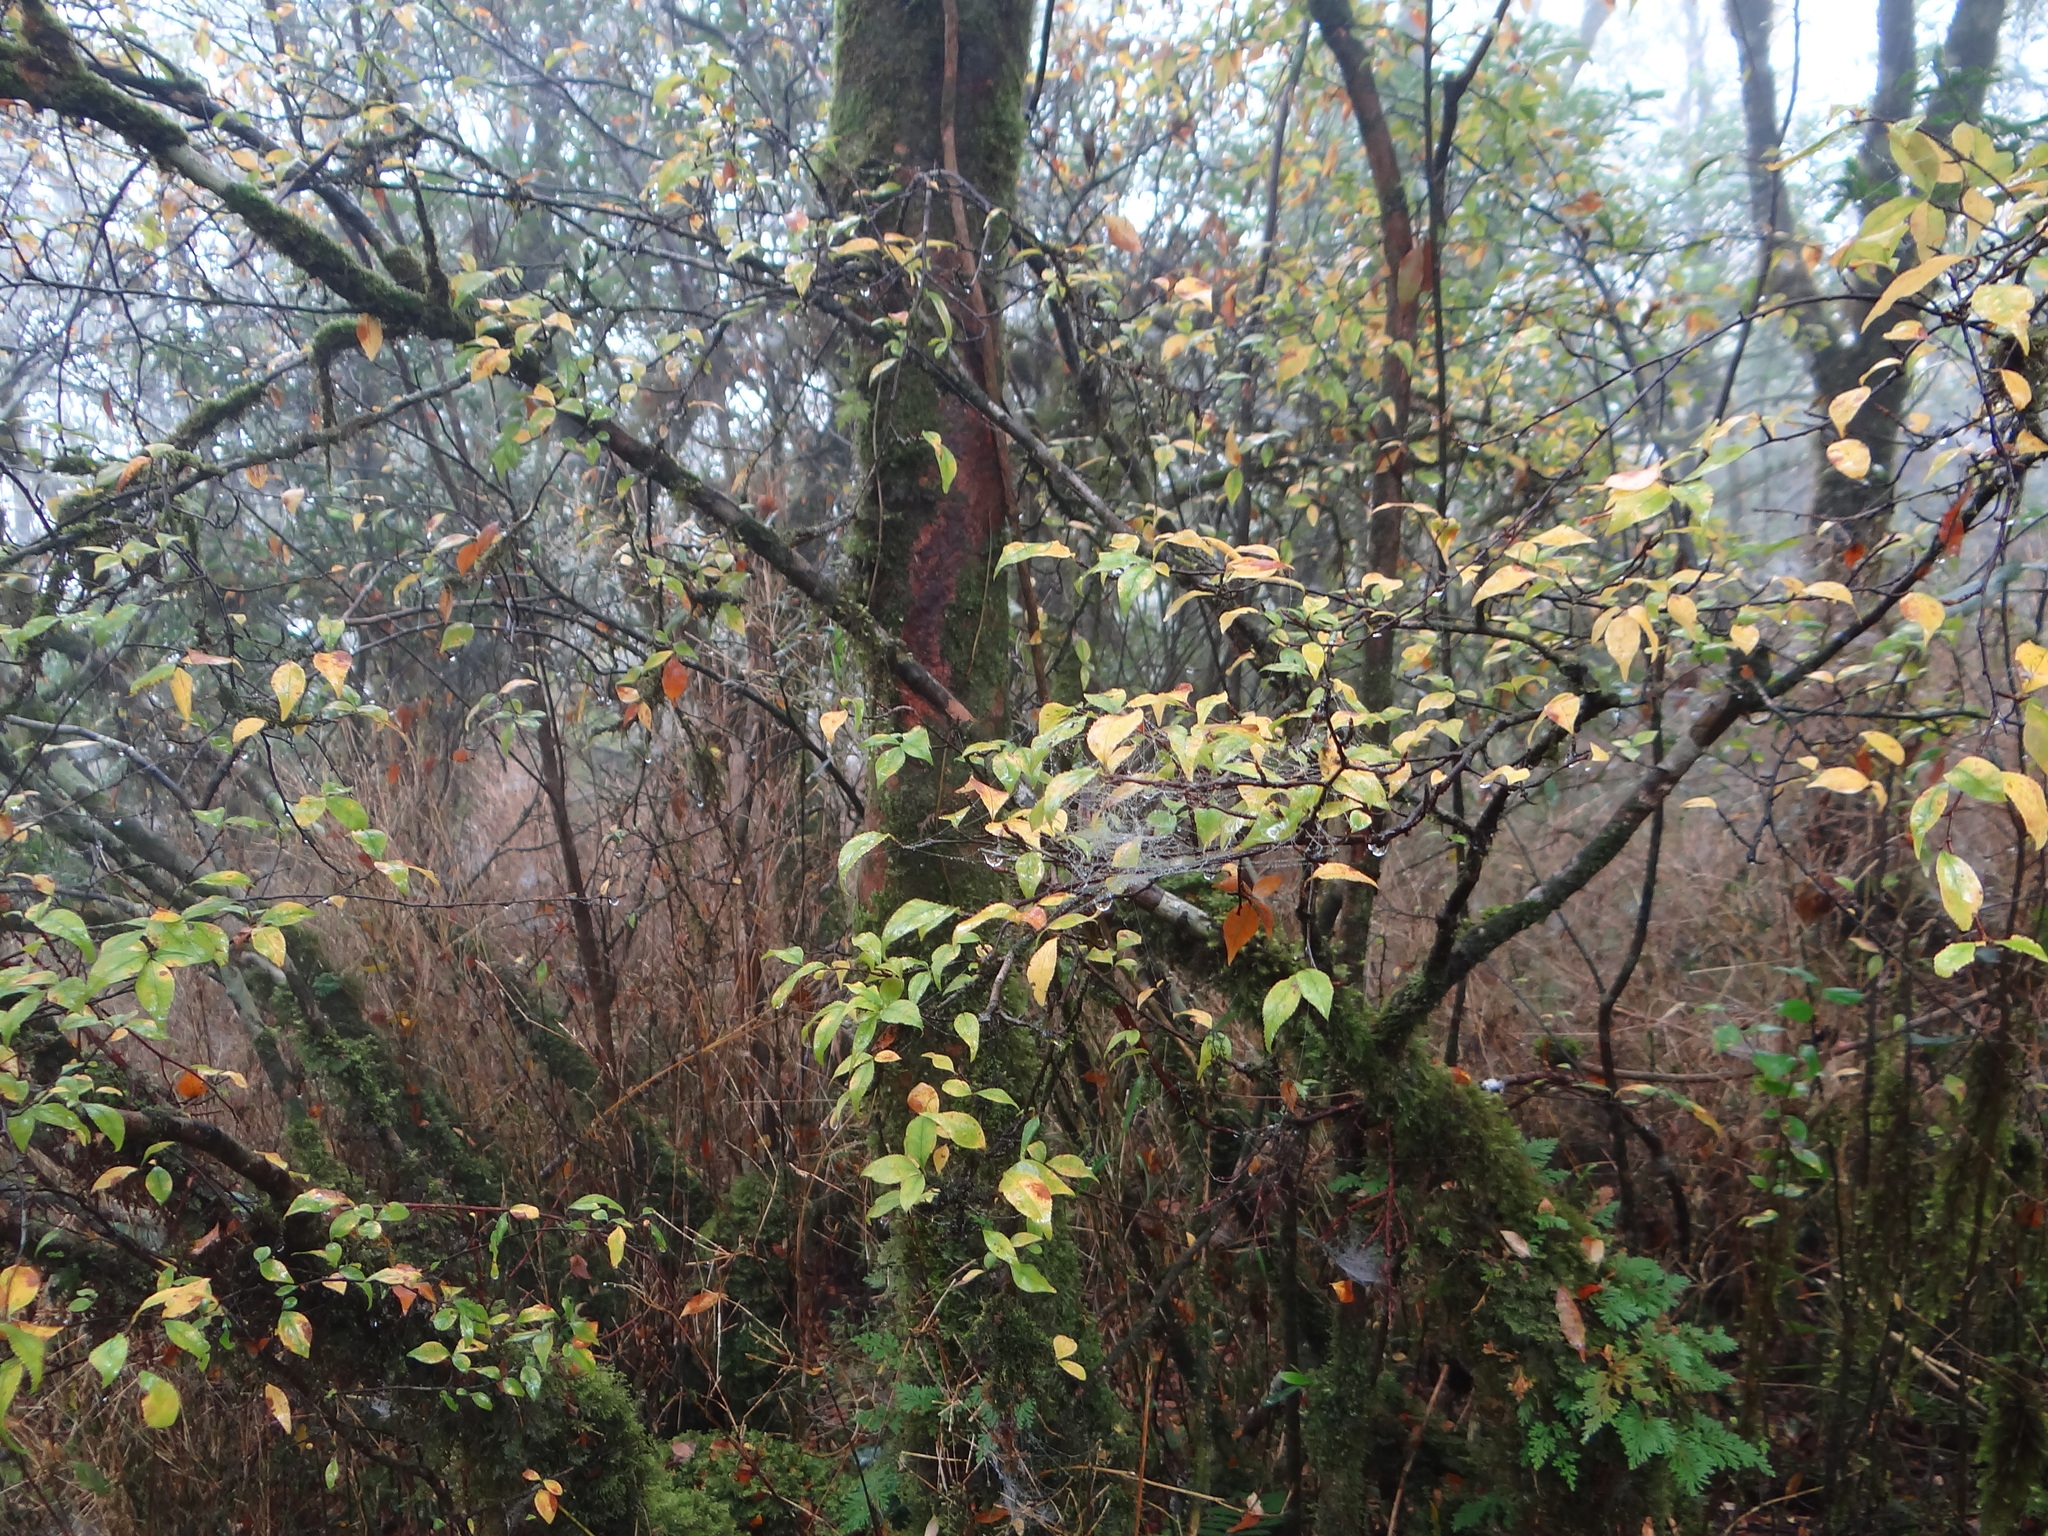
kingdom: Plantae
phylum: Tracheophyta
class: Magnoliopsida
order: Rosales
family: Rosaceae
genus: Pourthiaea
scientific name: Pourthiaea villosa
